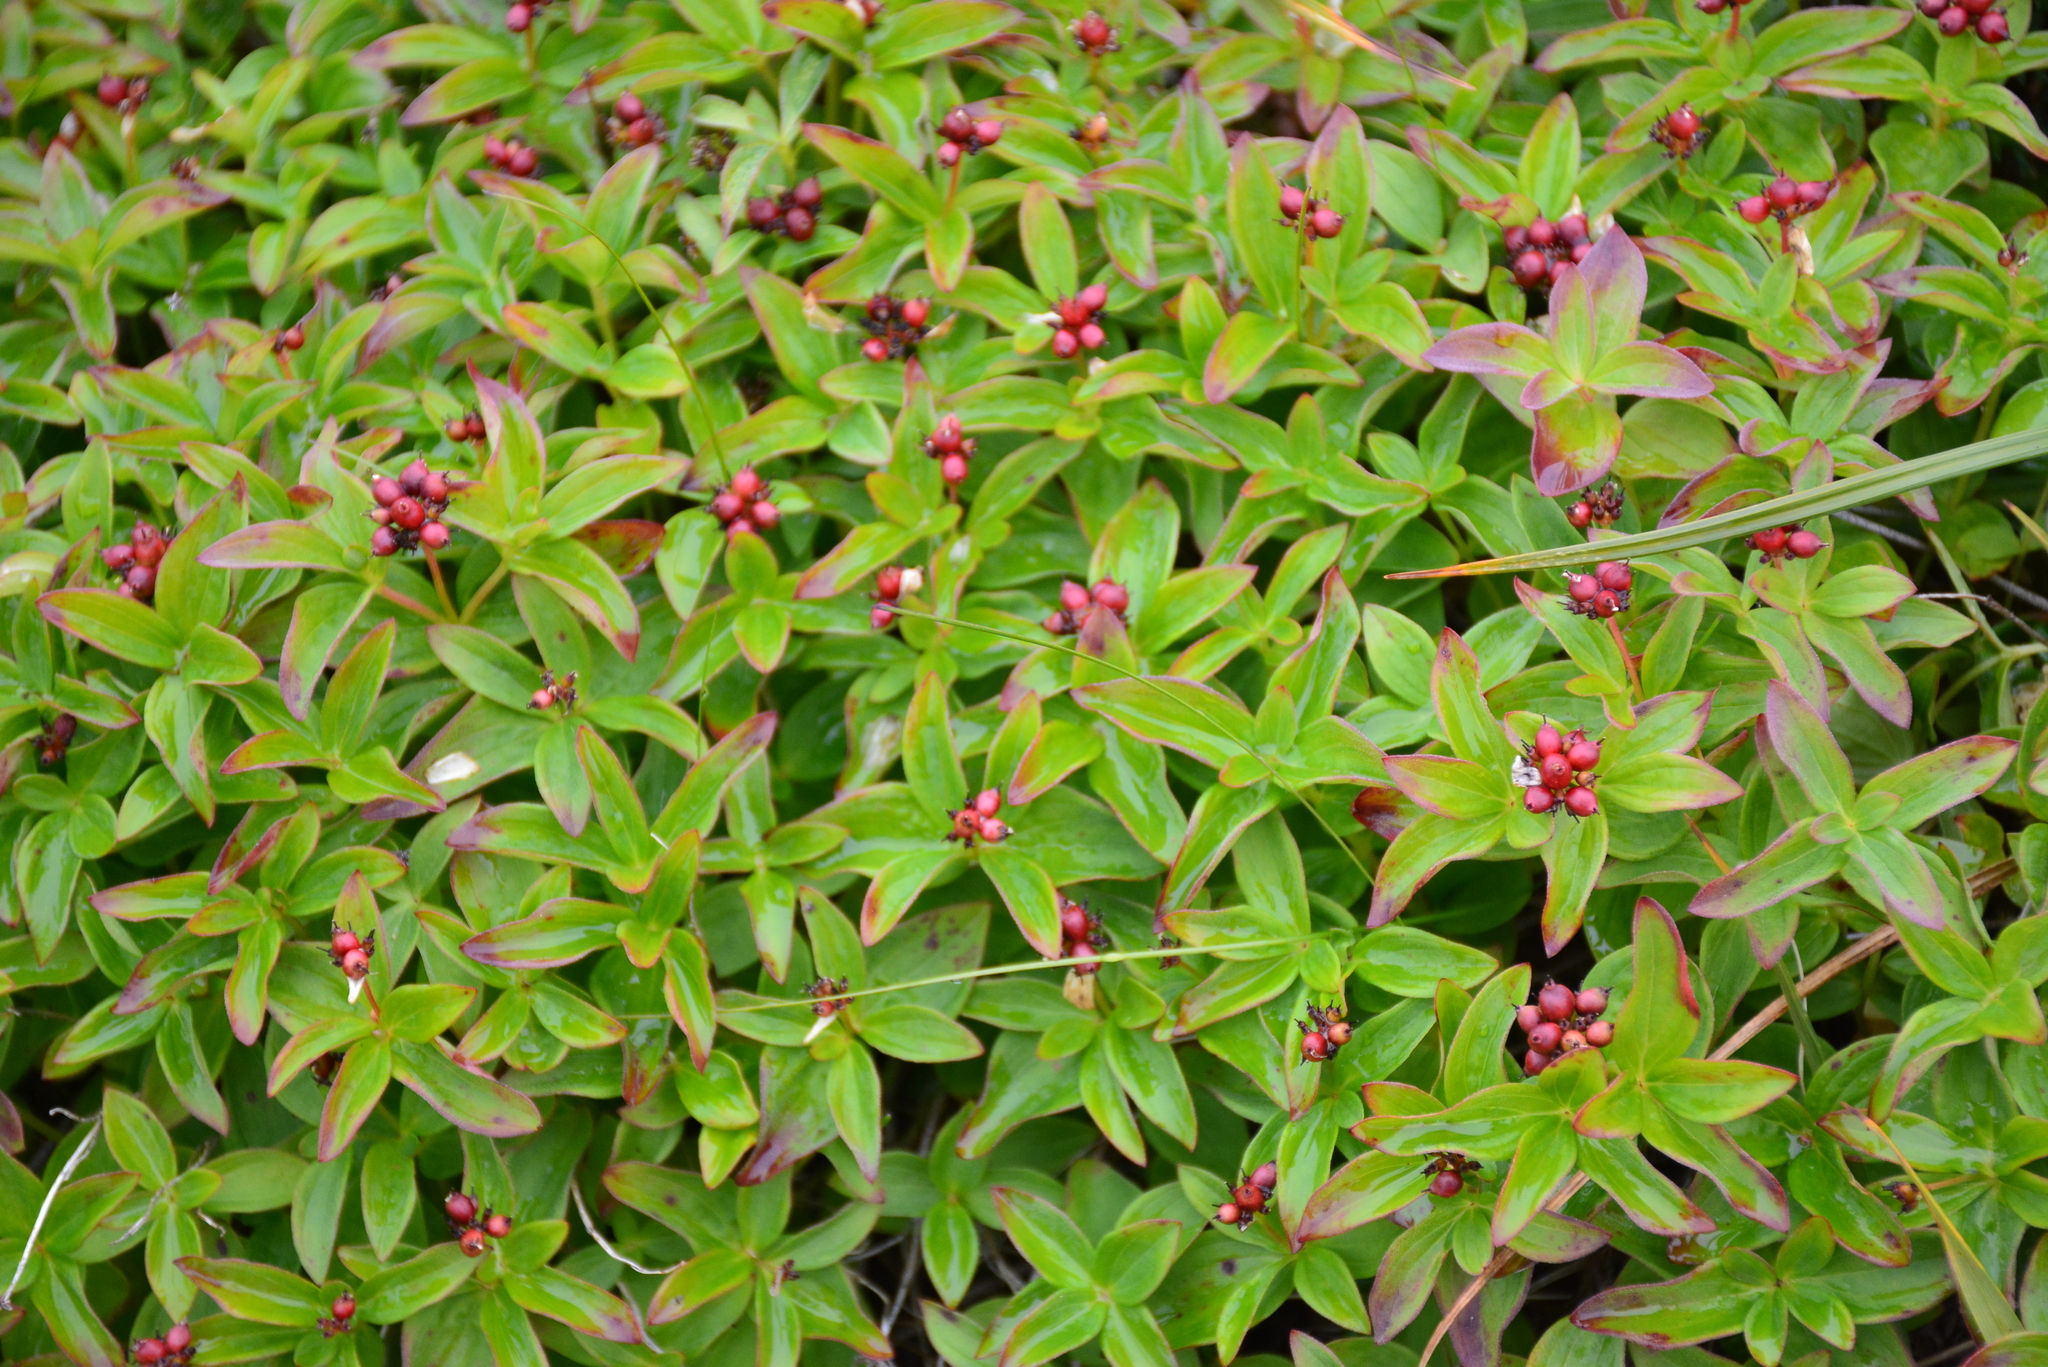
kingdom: Plantae
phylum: Tracheophyta
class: Magnoliopsida
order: Cornales
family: Cornaceae
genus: Cornus
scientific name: Cornus suecica
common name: Dwarf cornel
